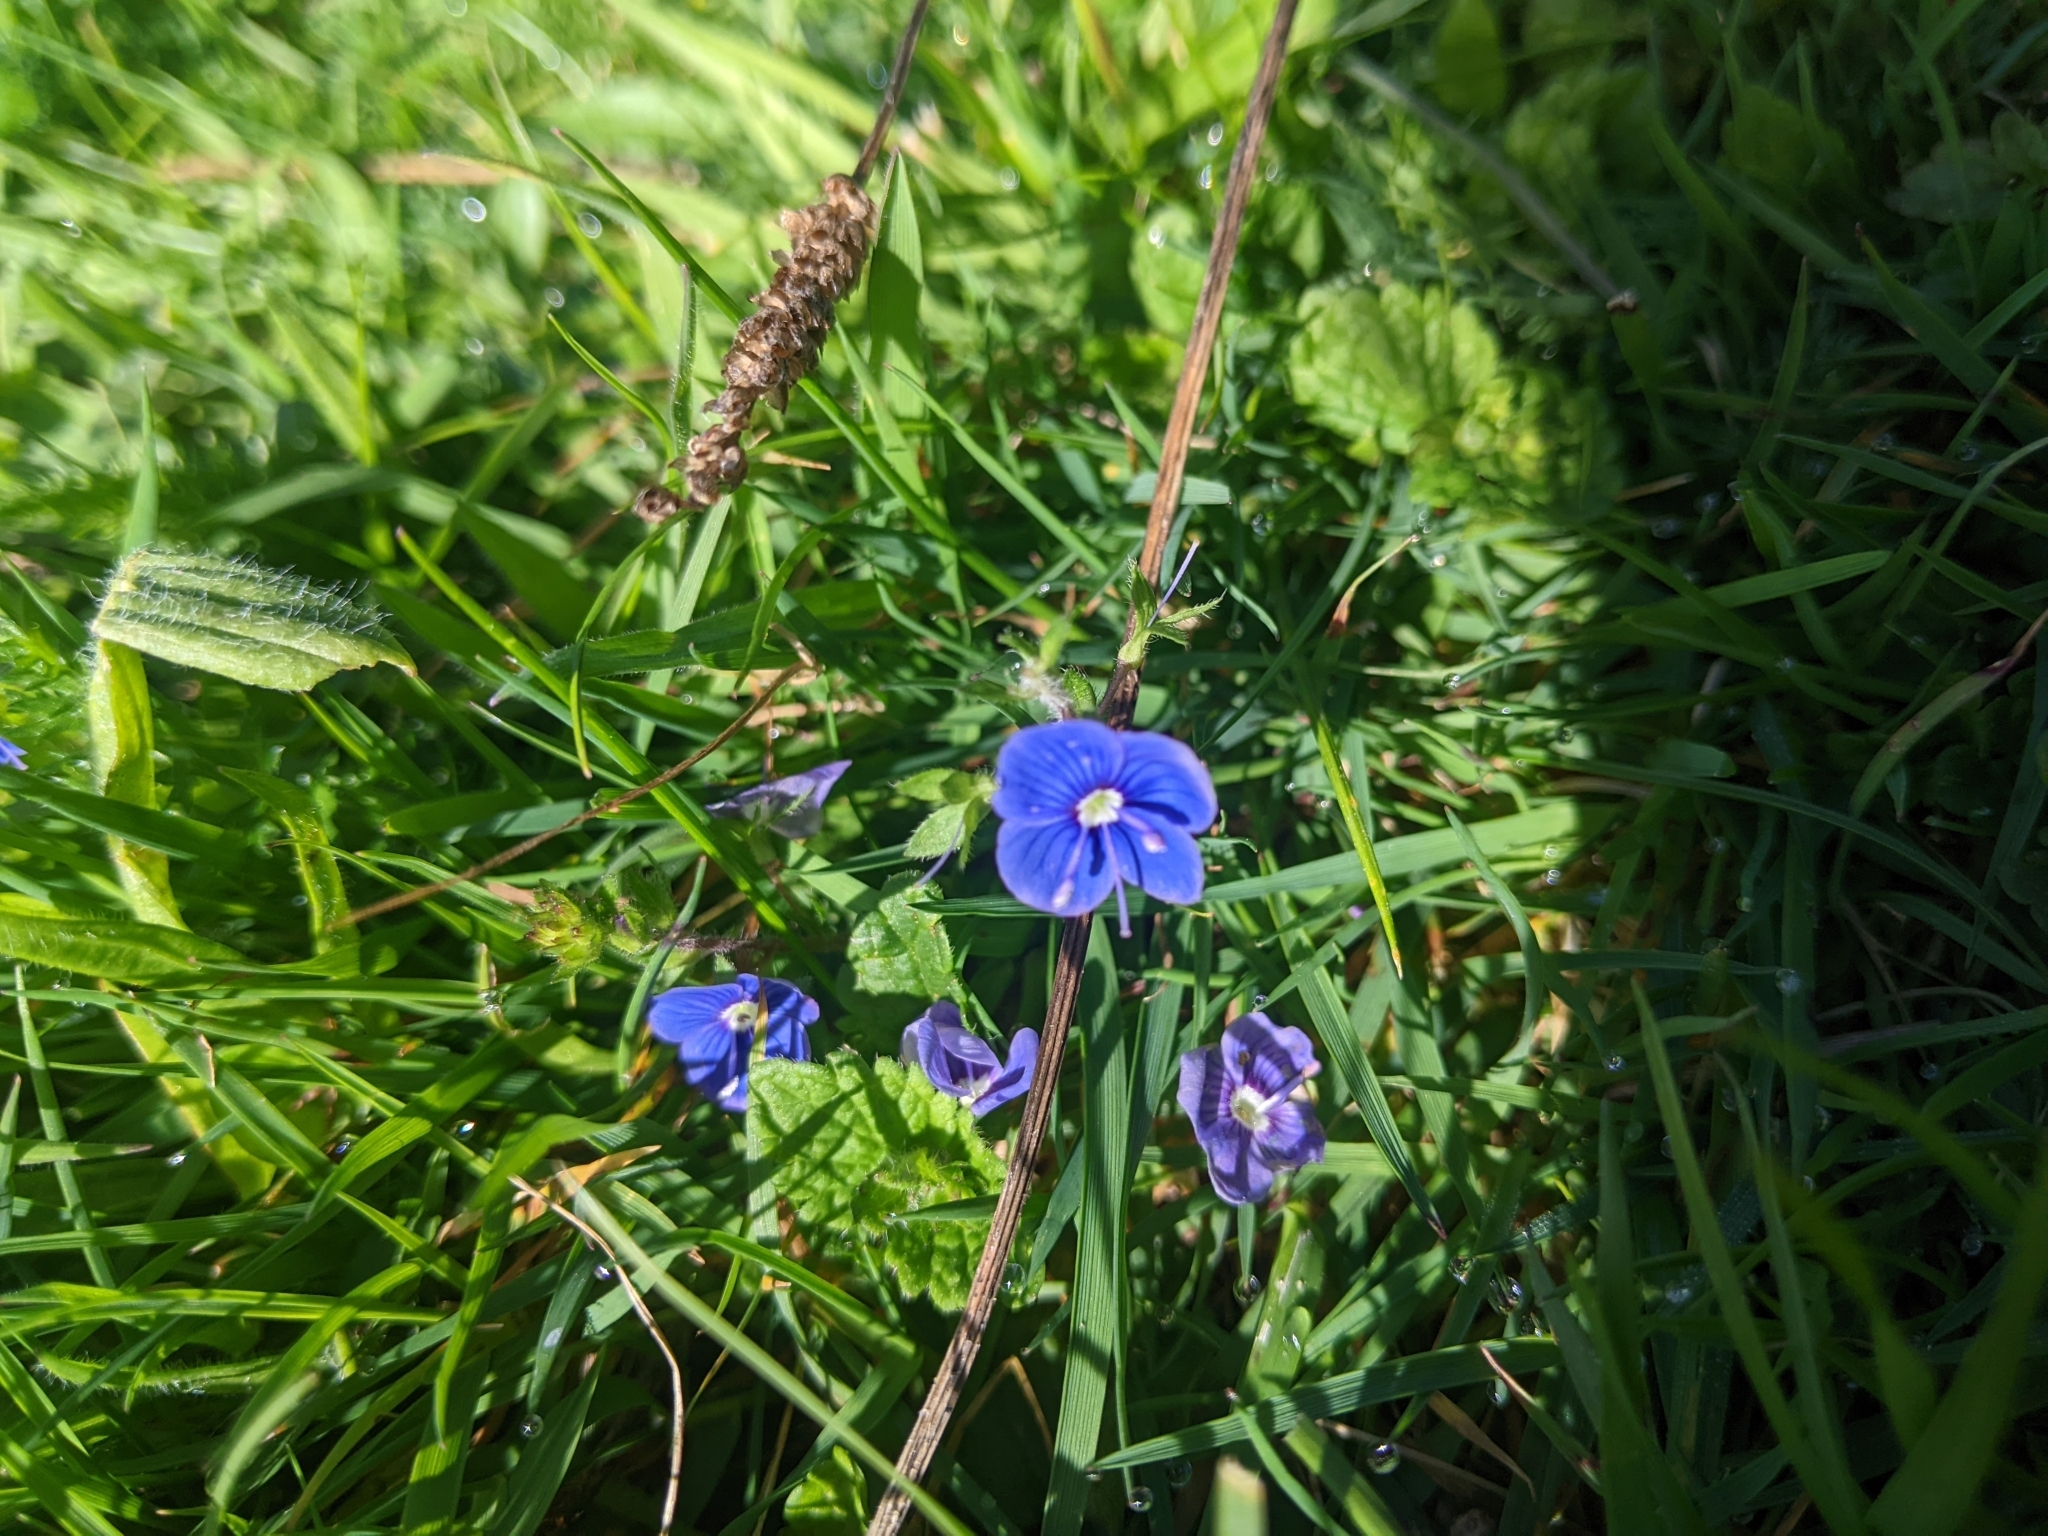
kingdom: Plantae
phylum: Tracheophyta
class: Magnoliopsida
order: Lamiales
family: Plantaginaceae
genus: Veronica
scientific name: Veronica chamaedrys
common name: Germander speedwell
